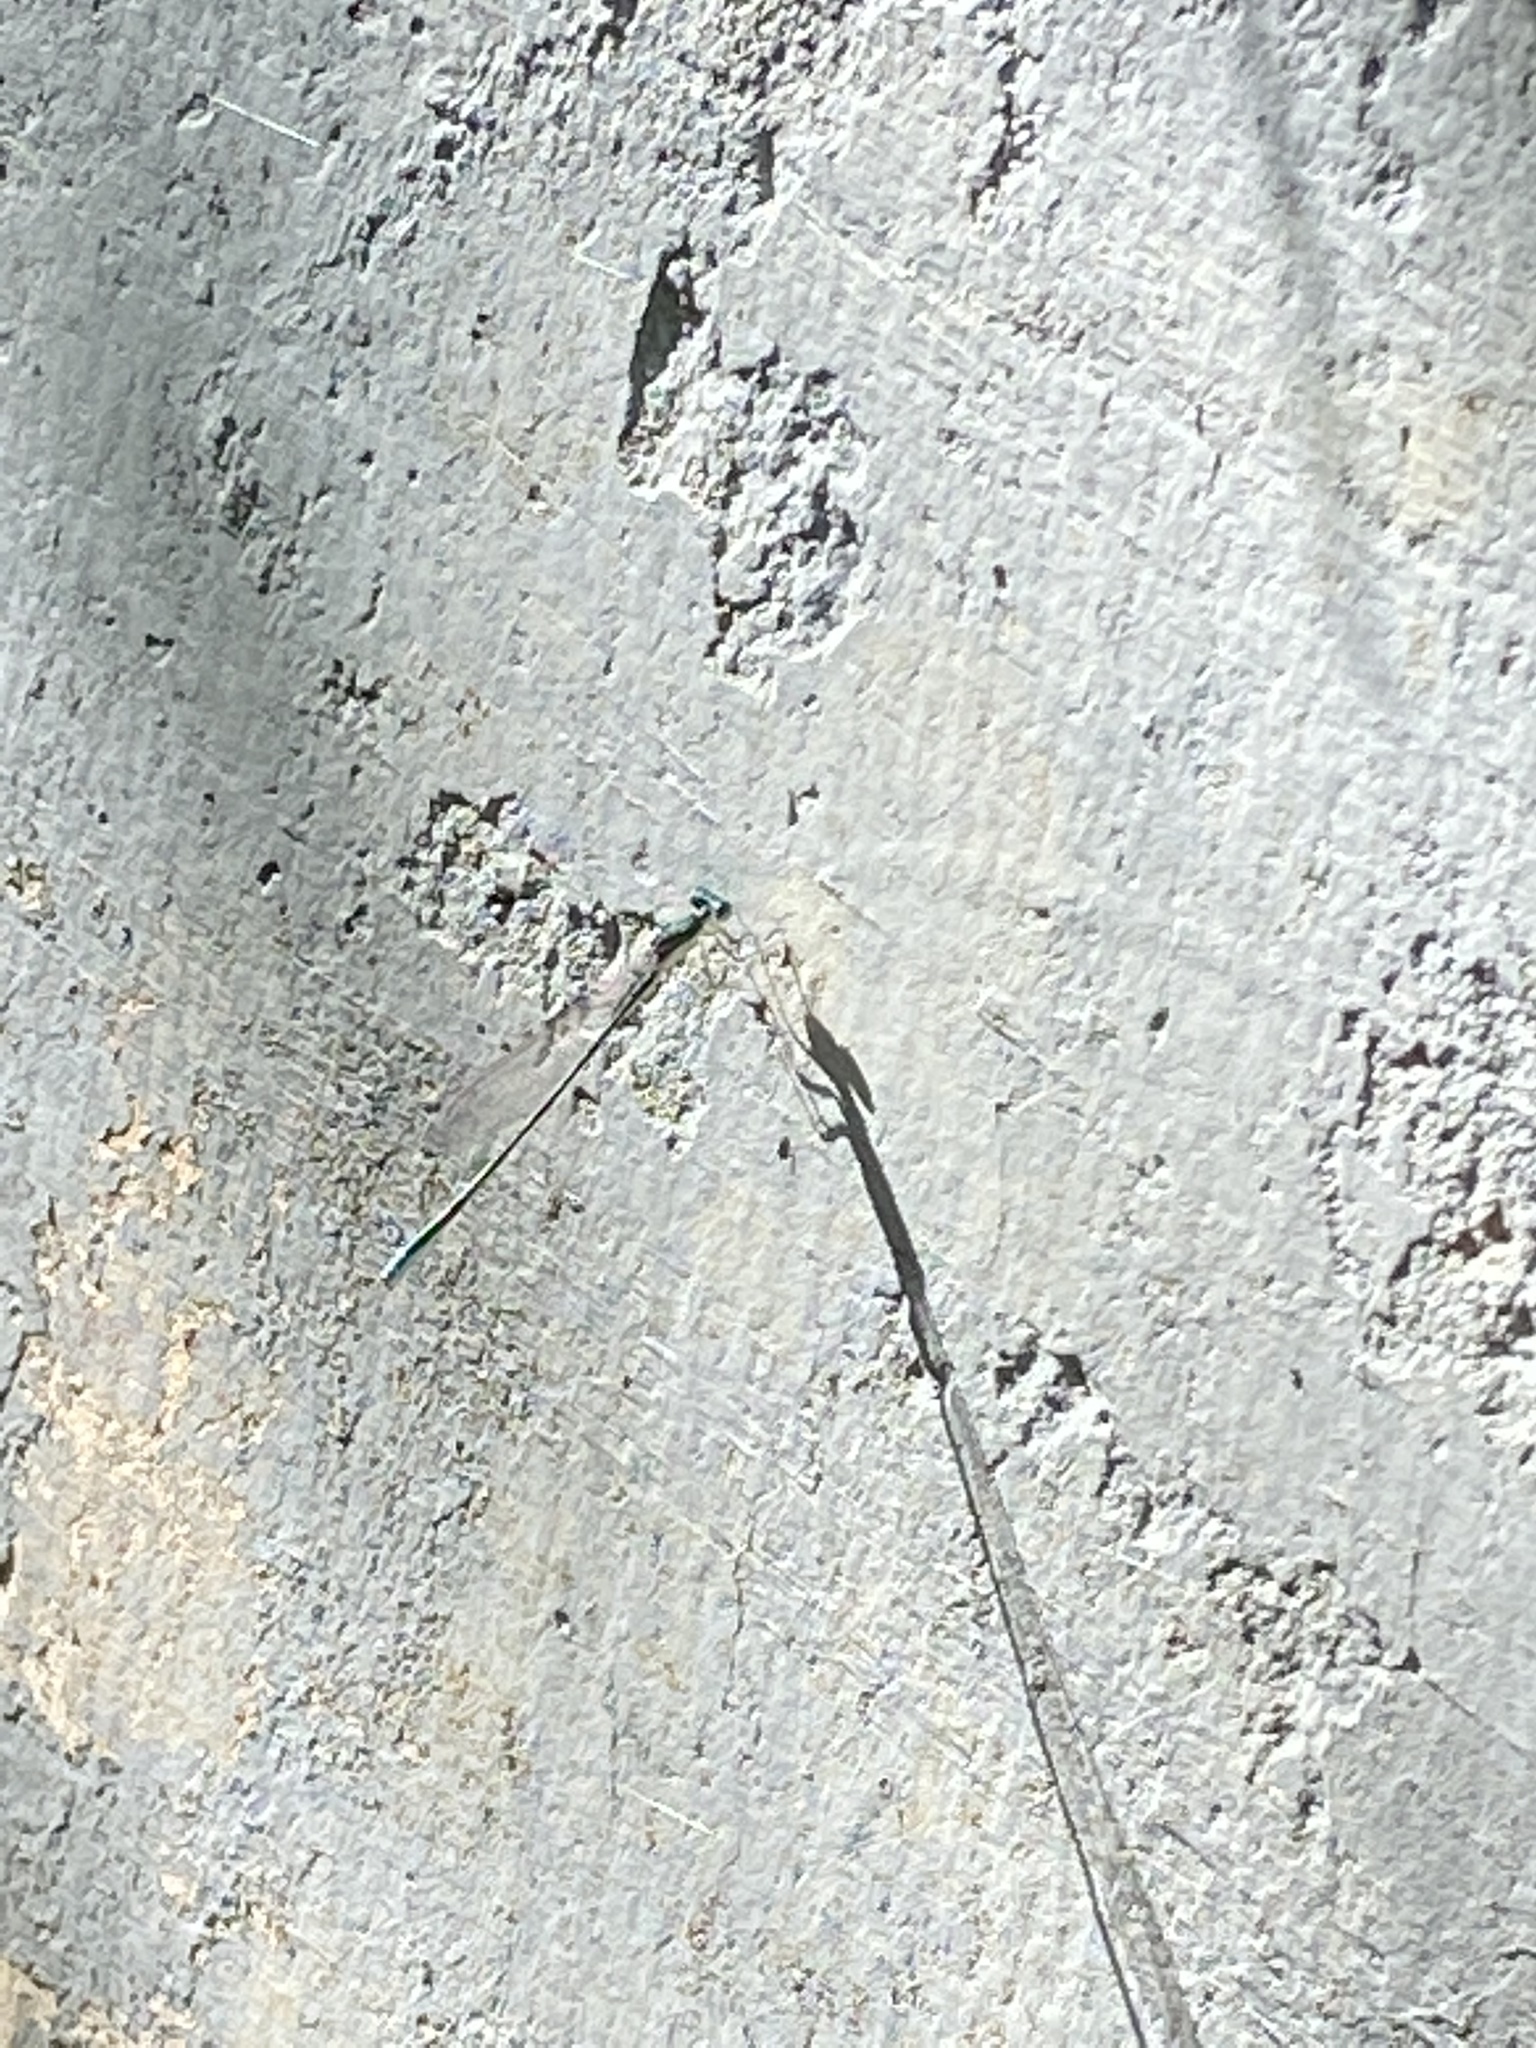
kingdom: Animalia
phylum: Arthropoda
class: Insecta
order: Odonata
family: Coenagrionidae
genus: Nehalennia
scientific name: Nehalennia irene
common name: Sedge sprite
